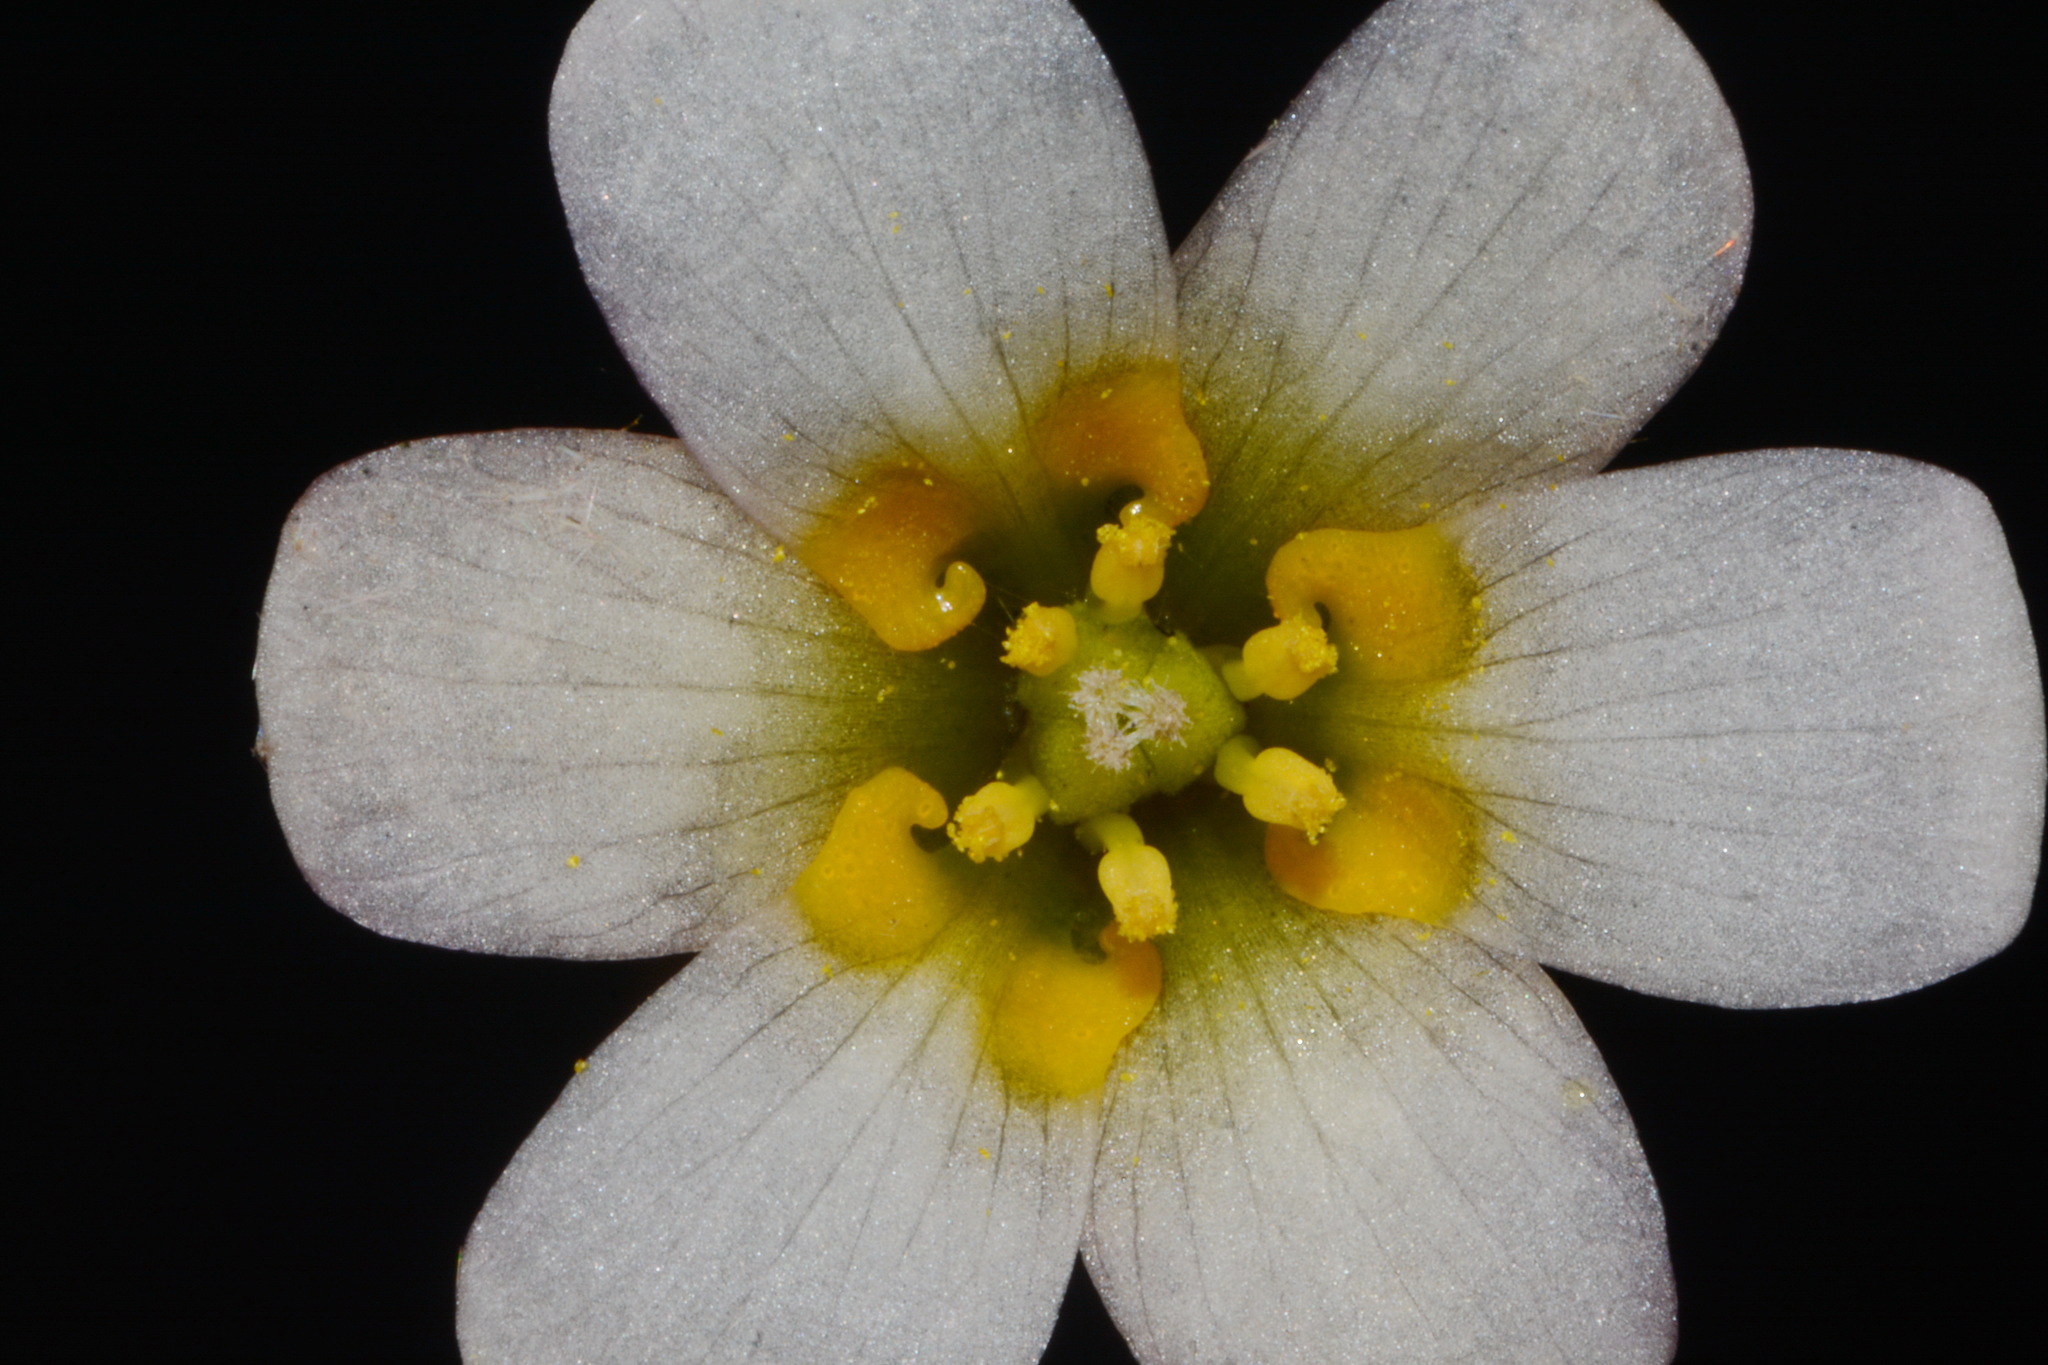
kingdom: Plantae
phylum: Tracheophyta
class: Magnoliopsida
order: Nymphaeales
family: Cabombaceae
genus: Cabomba
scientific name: Cabomba caroliniana
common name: Fanwort
